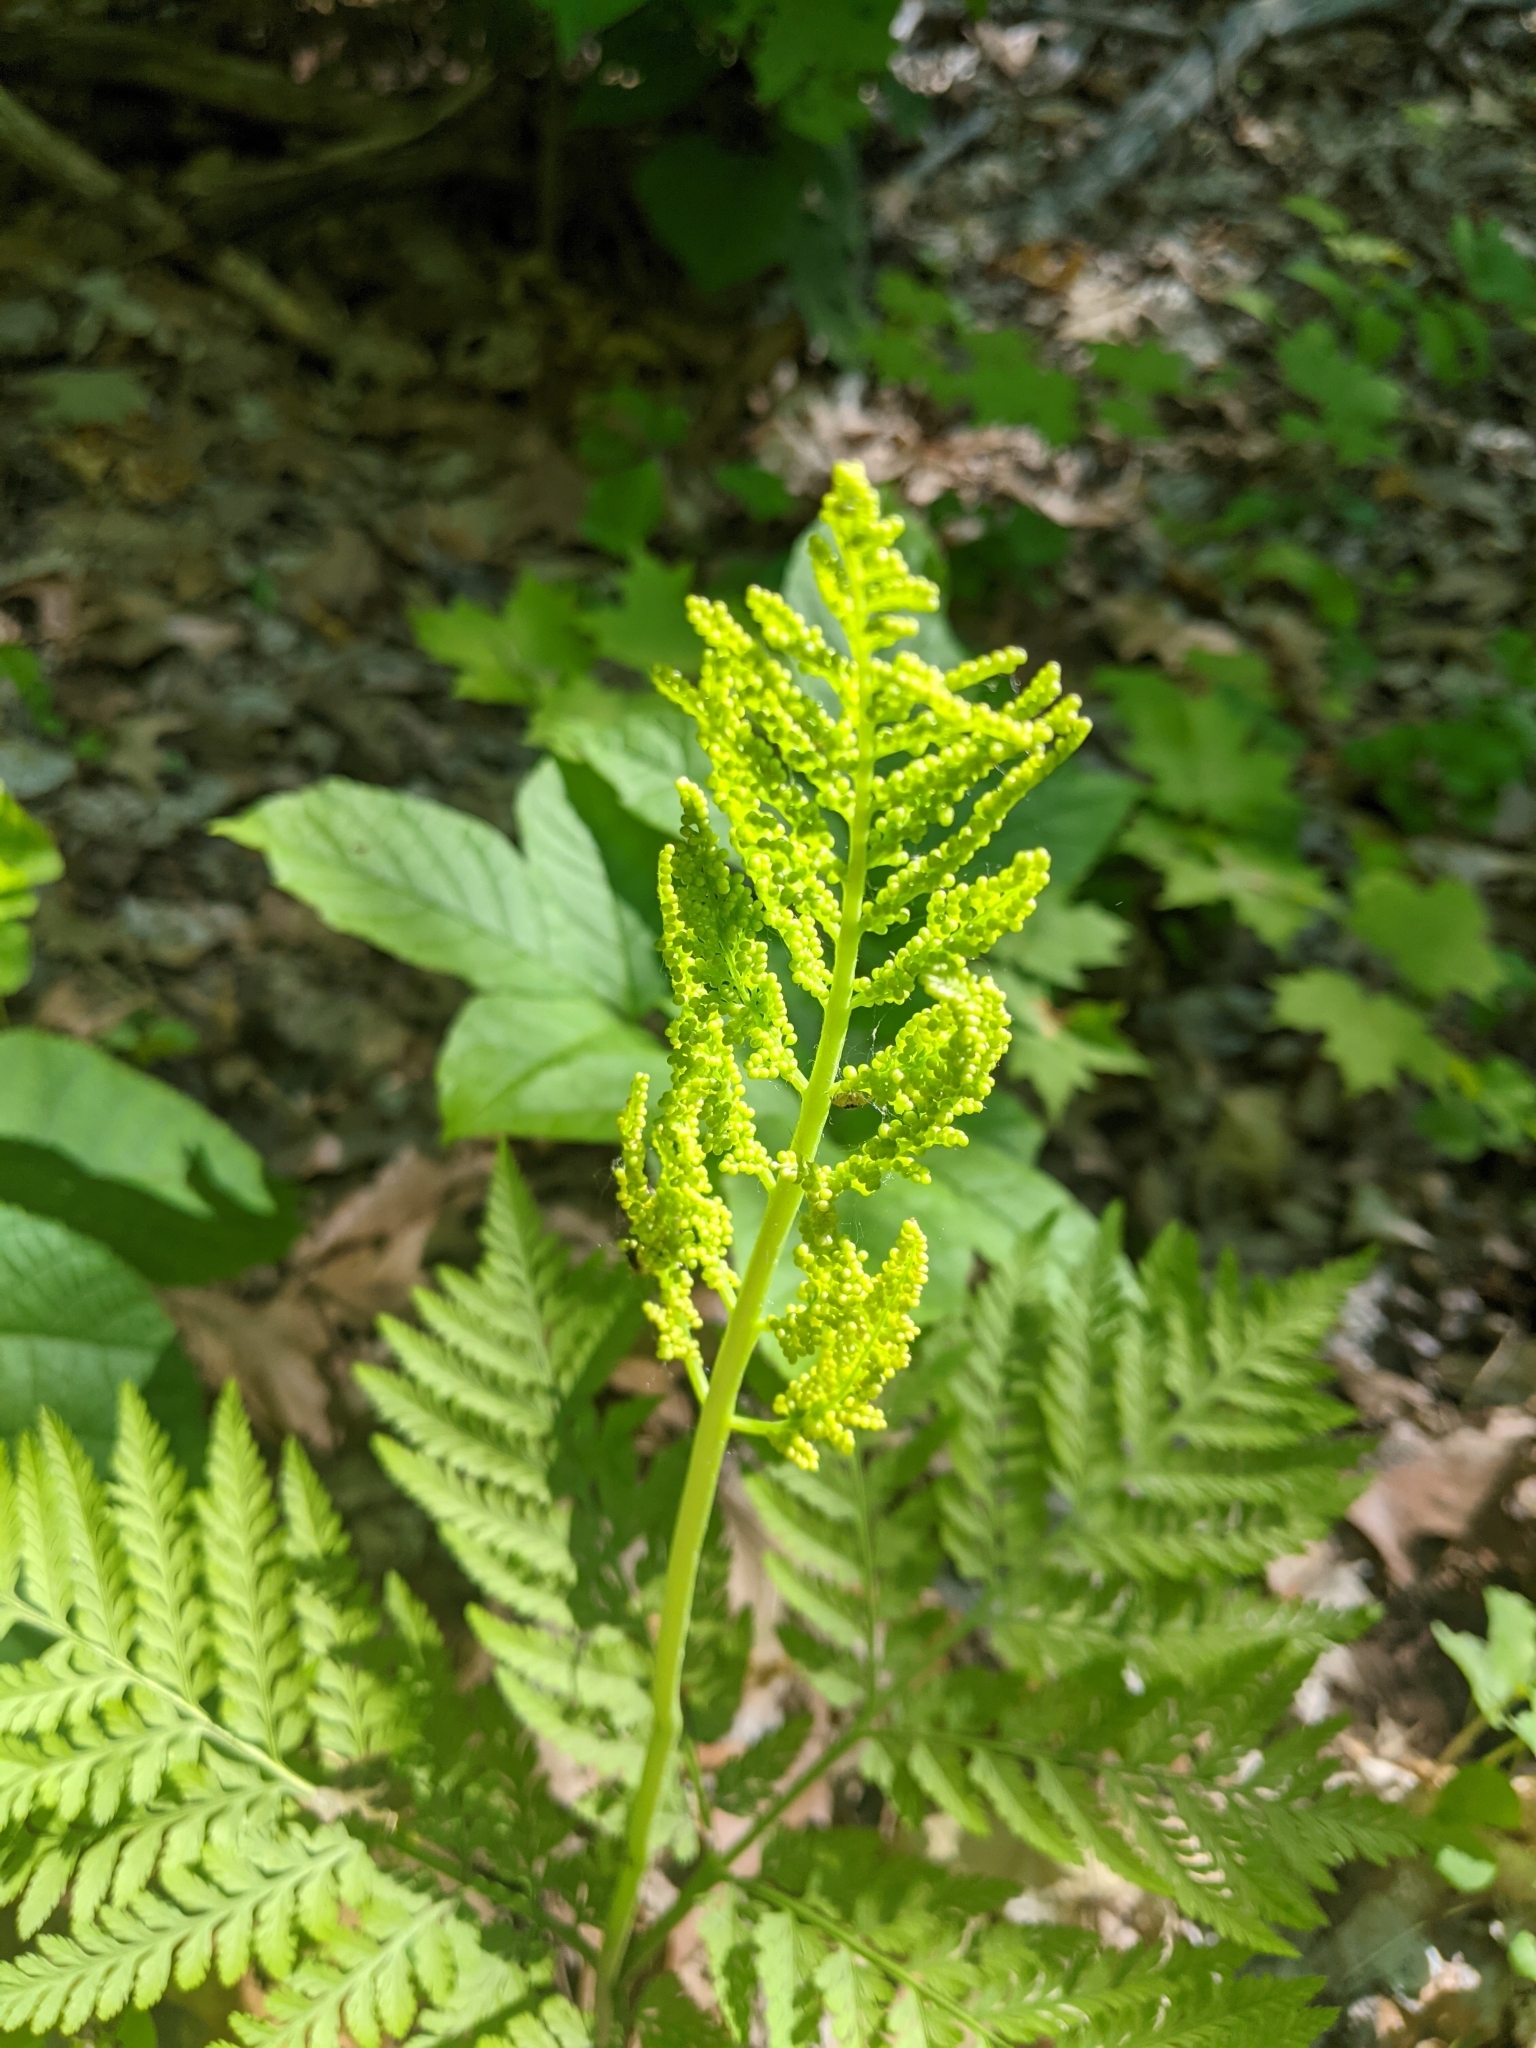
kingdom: Plantae
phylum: Tracheophyta
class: Polypodiopsida
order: Ophioglossales
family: Ophioglossaceae
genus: Botrypus
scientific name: Botrypus virginianus
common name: Common grapefern
